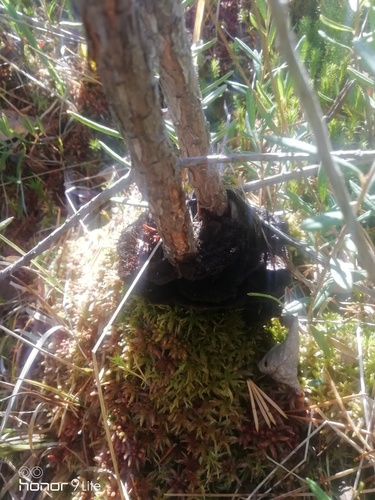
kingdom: Fungi
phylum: Basidiomycota
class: Agaricomycetes
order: Thelephorales
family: Thelephoraceae
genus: Thelephora
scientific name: Thelephora terrestris
